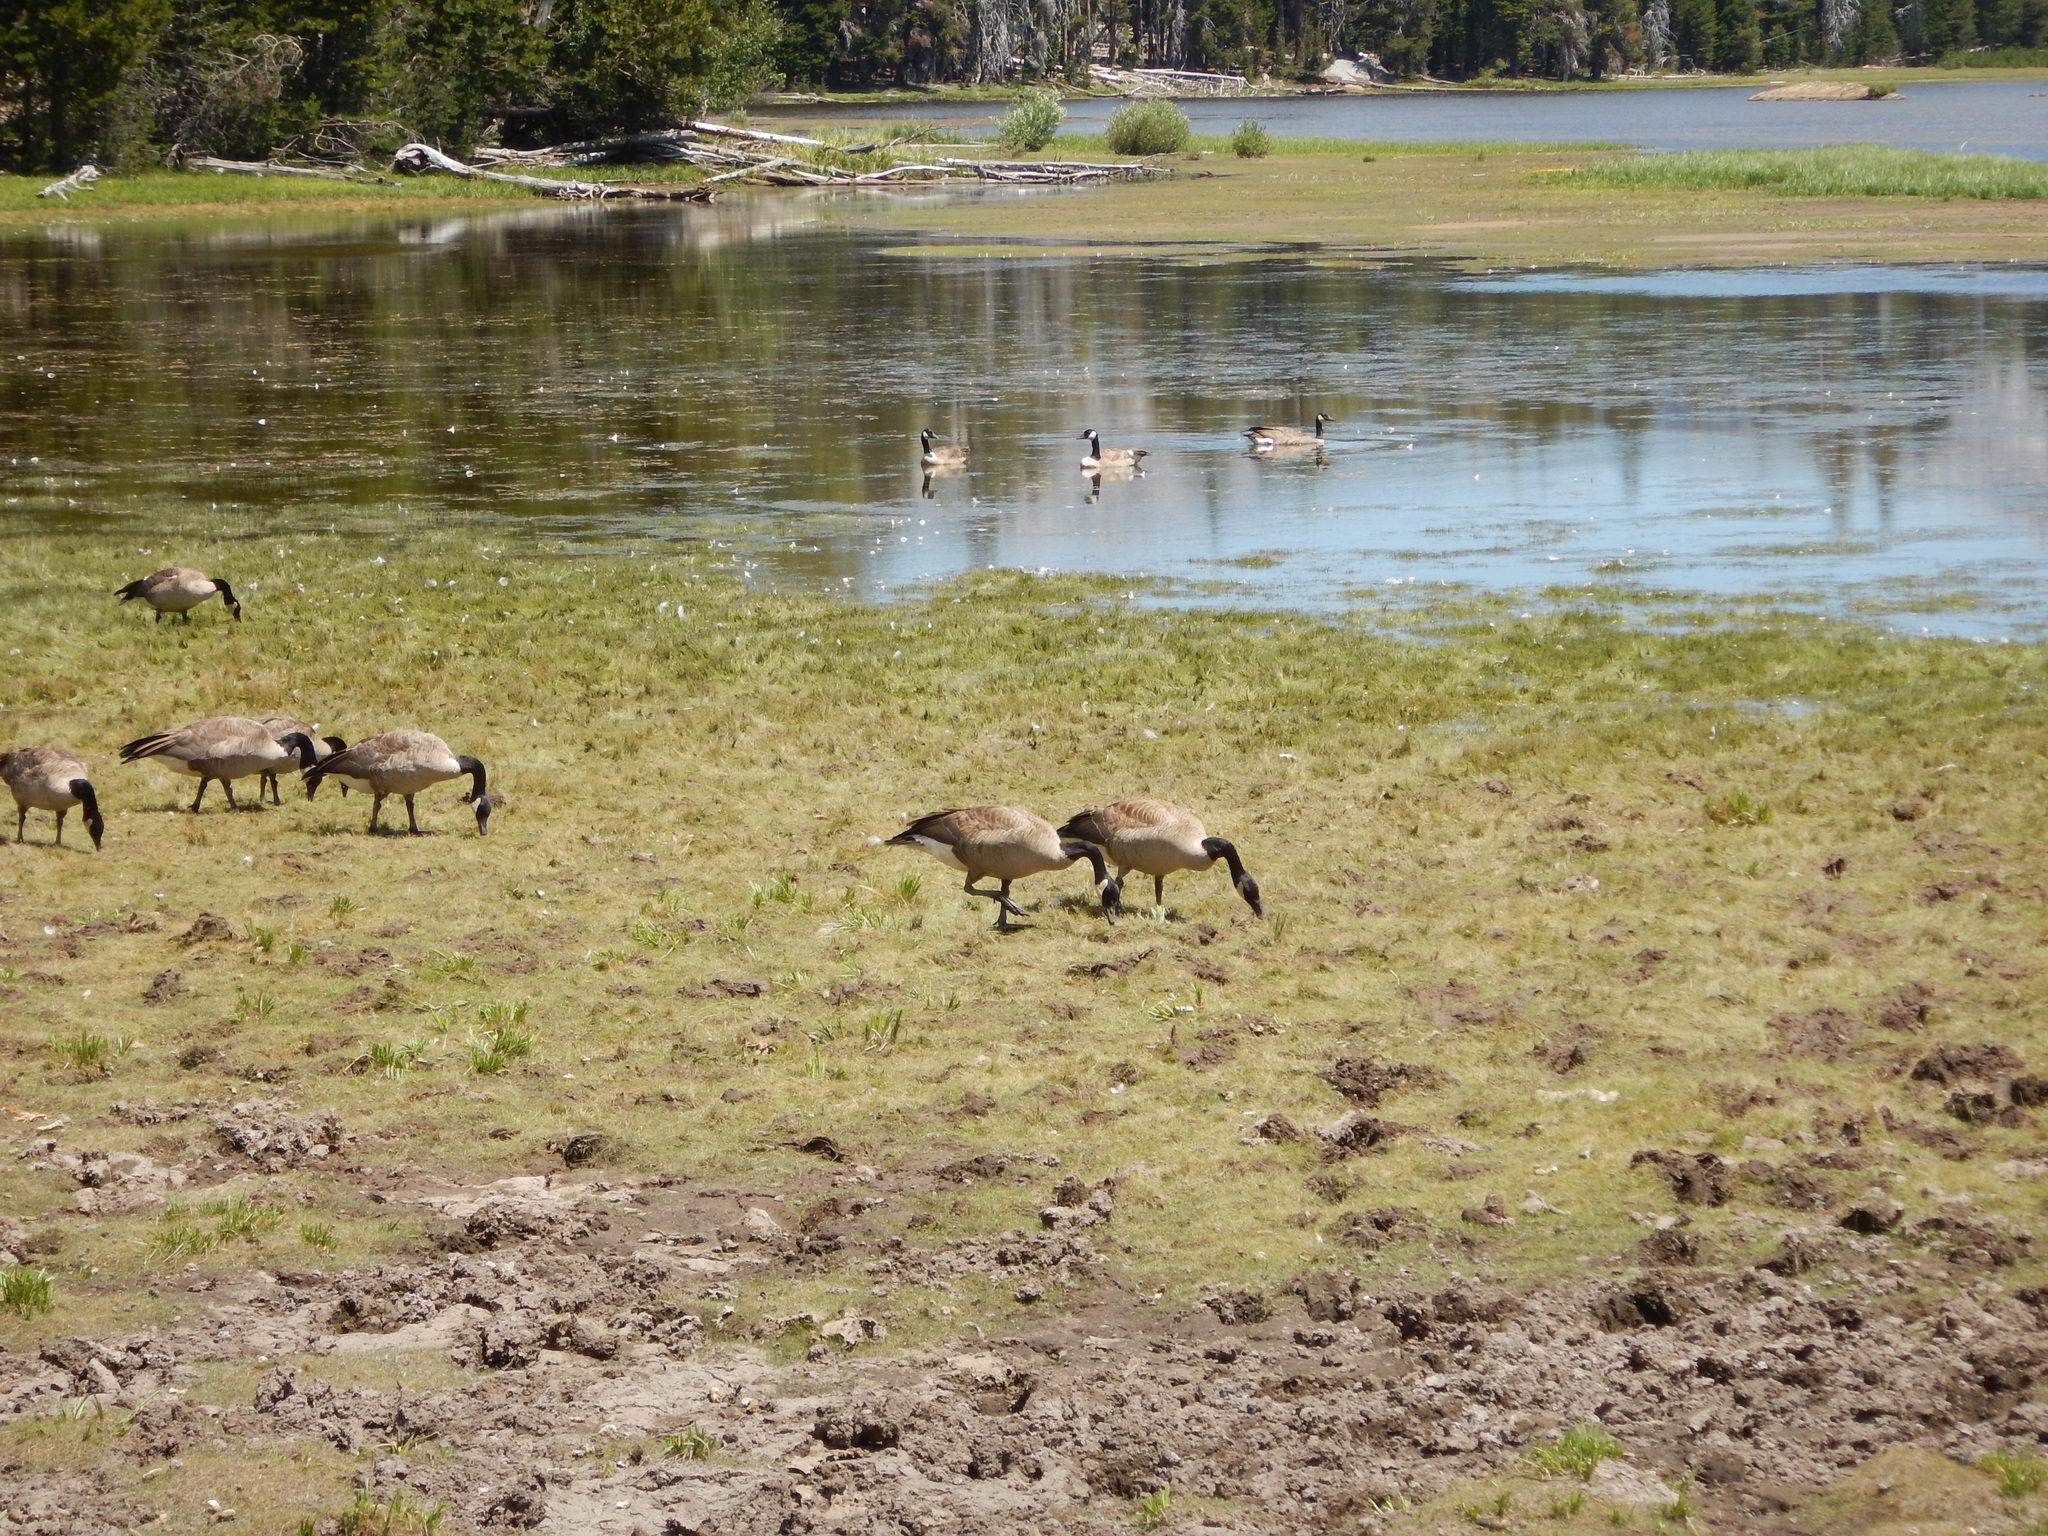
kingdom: Animalia
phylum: Chordata
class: Aves
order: Anseriformes
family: Anatidae
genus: Branta
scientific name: Branta canadensis
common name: Canada goose
